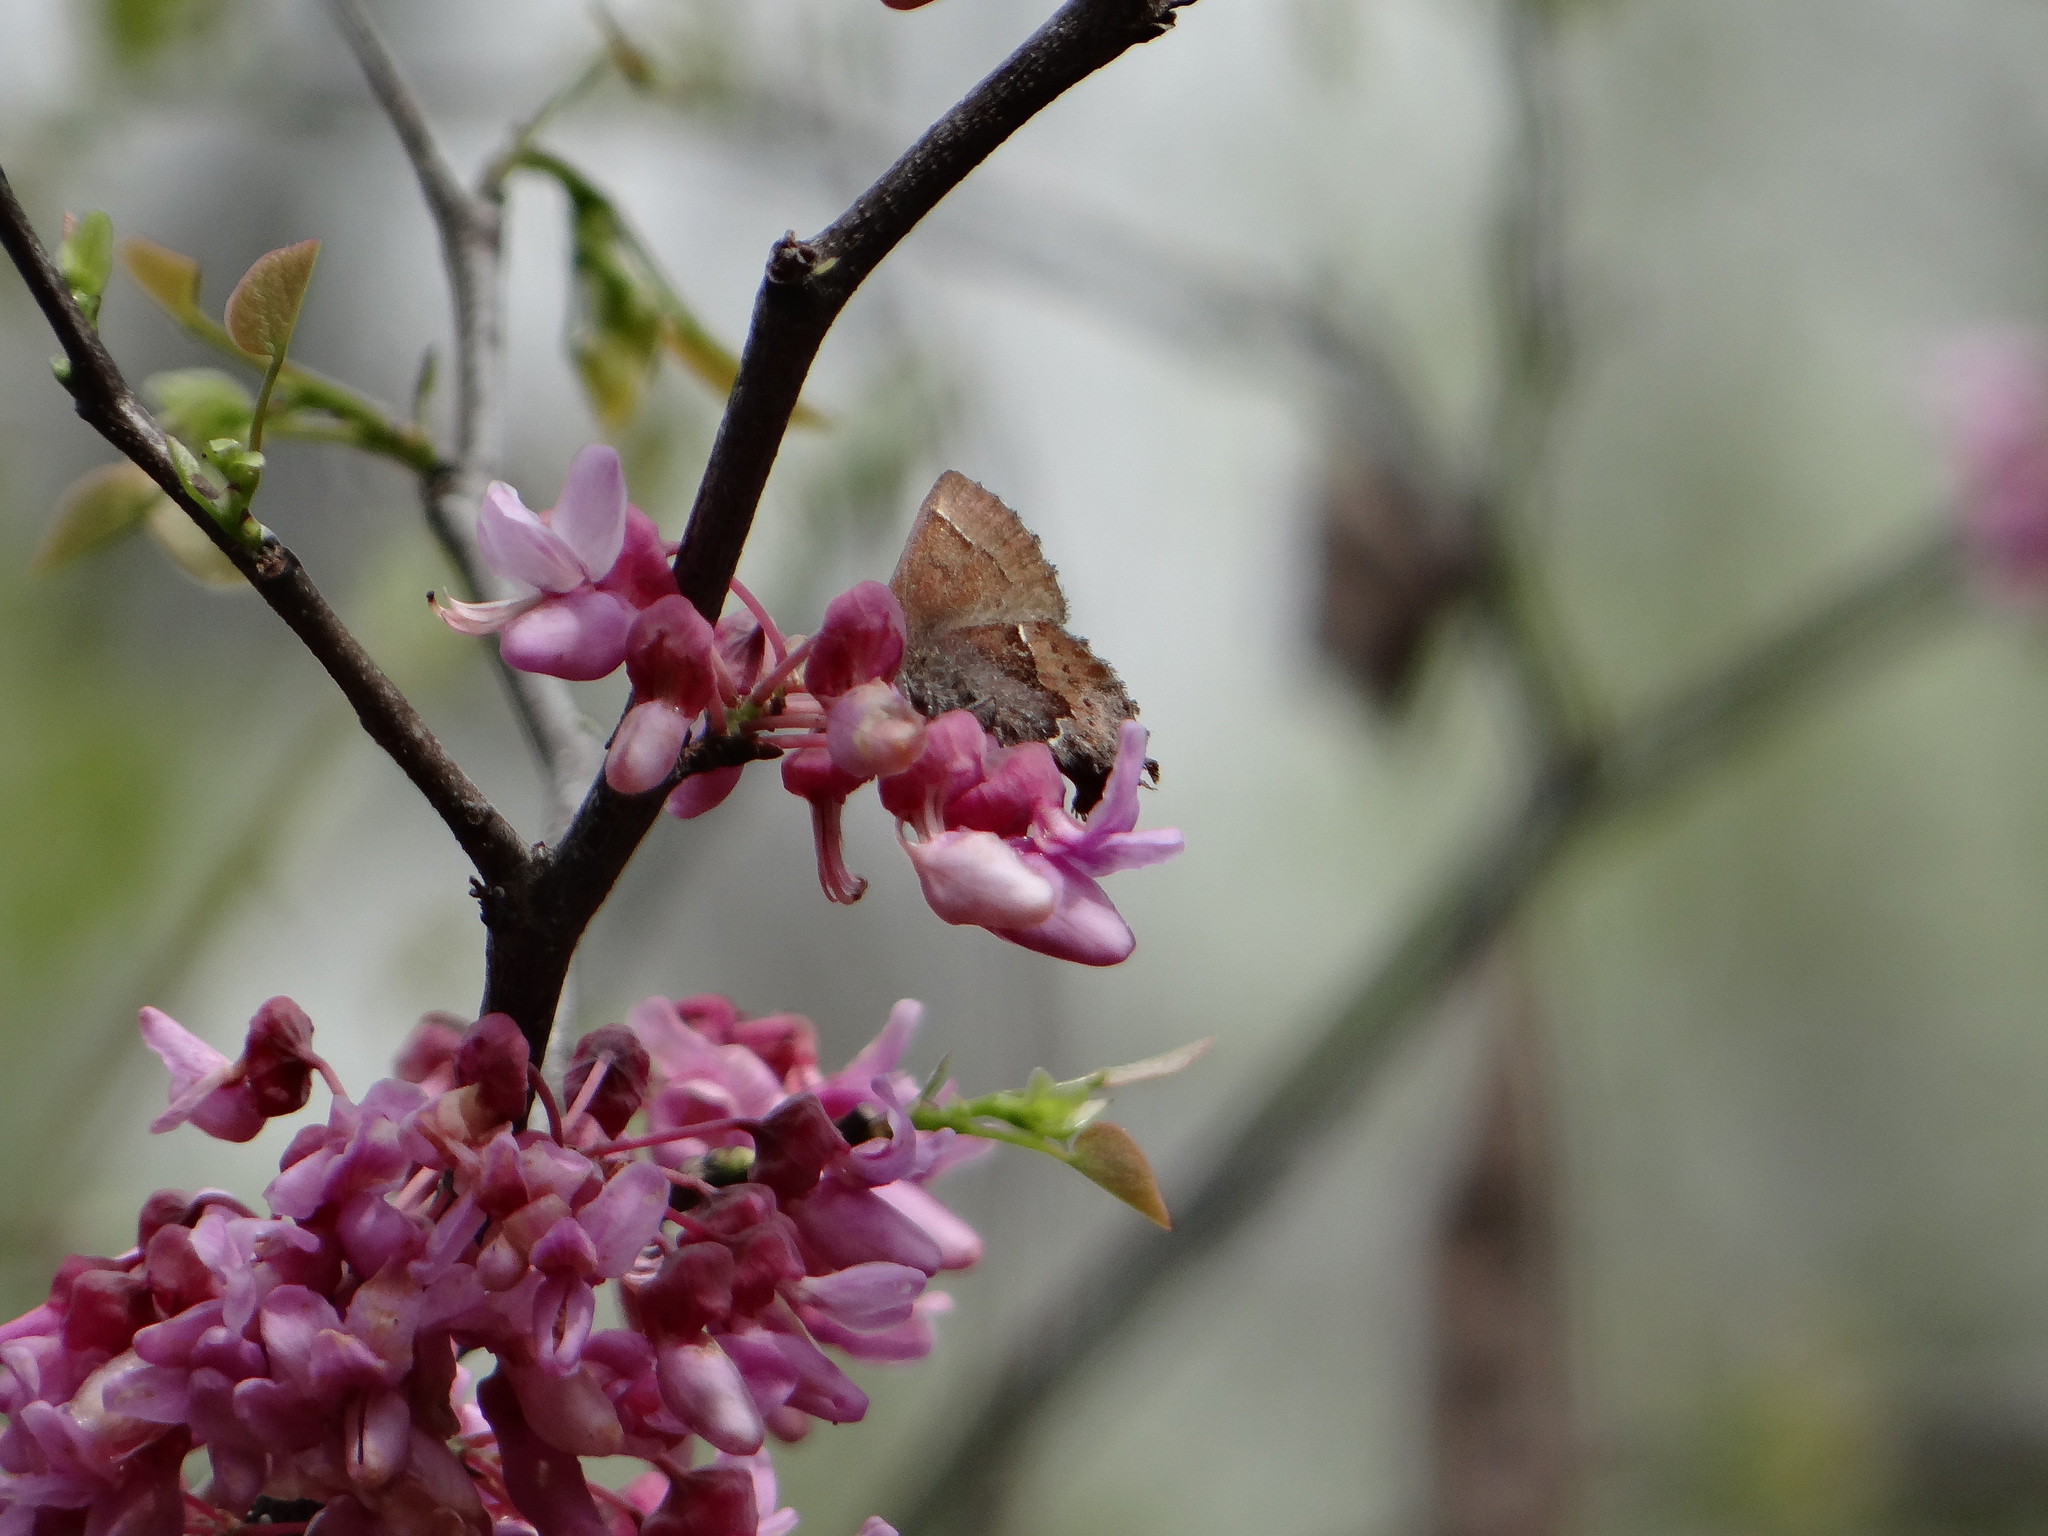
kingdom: Animalia
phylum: Arthropoda
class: Insecta
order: Lepidoptera
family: Lycaenidae
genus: Incisalia
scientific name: Incisalia henrici
